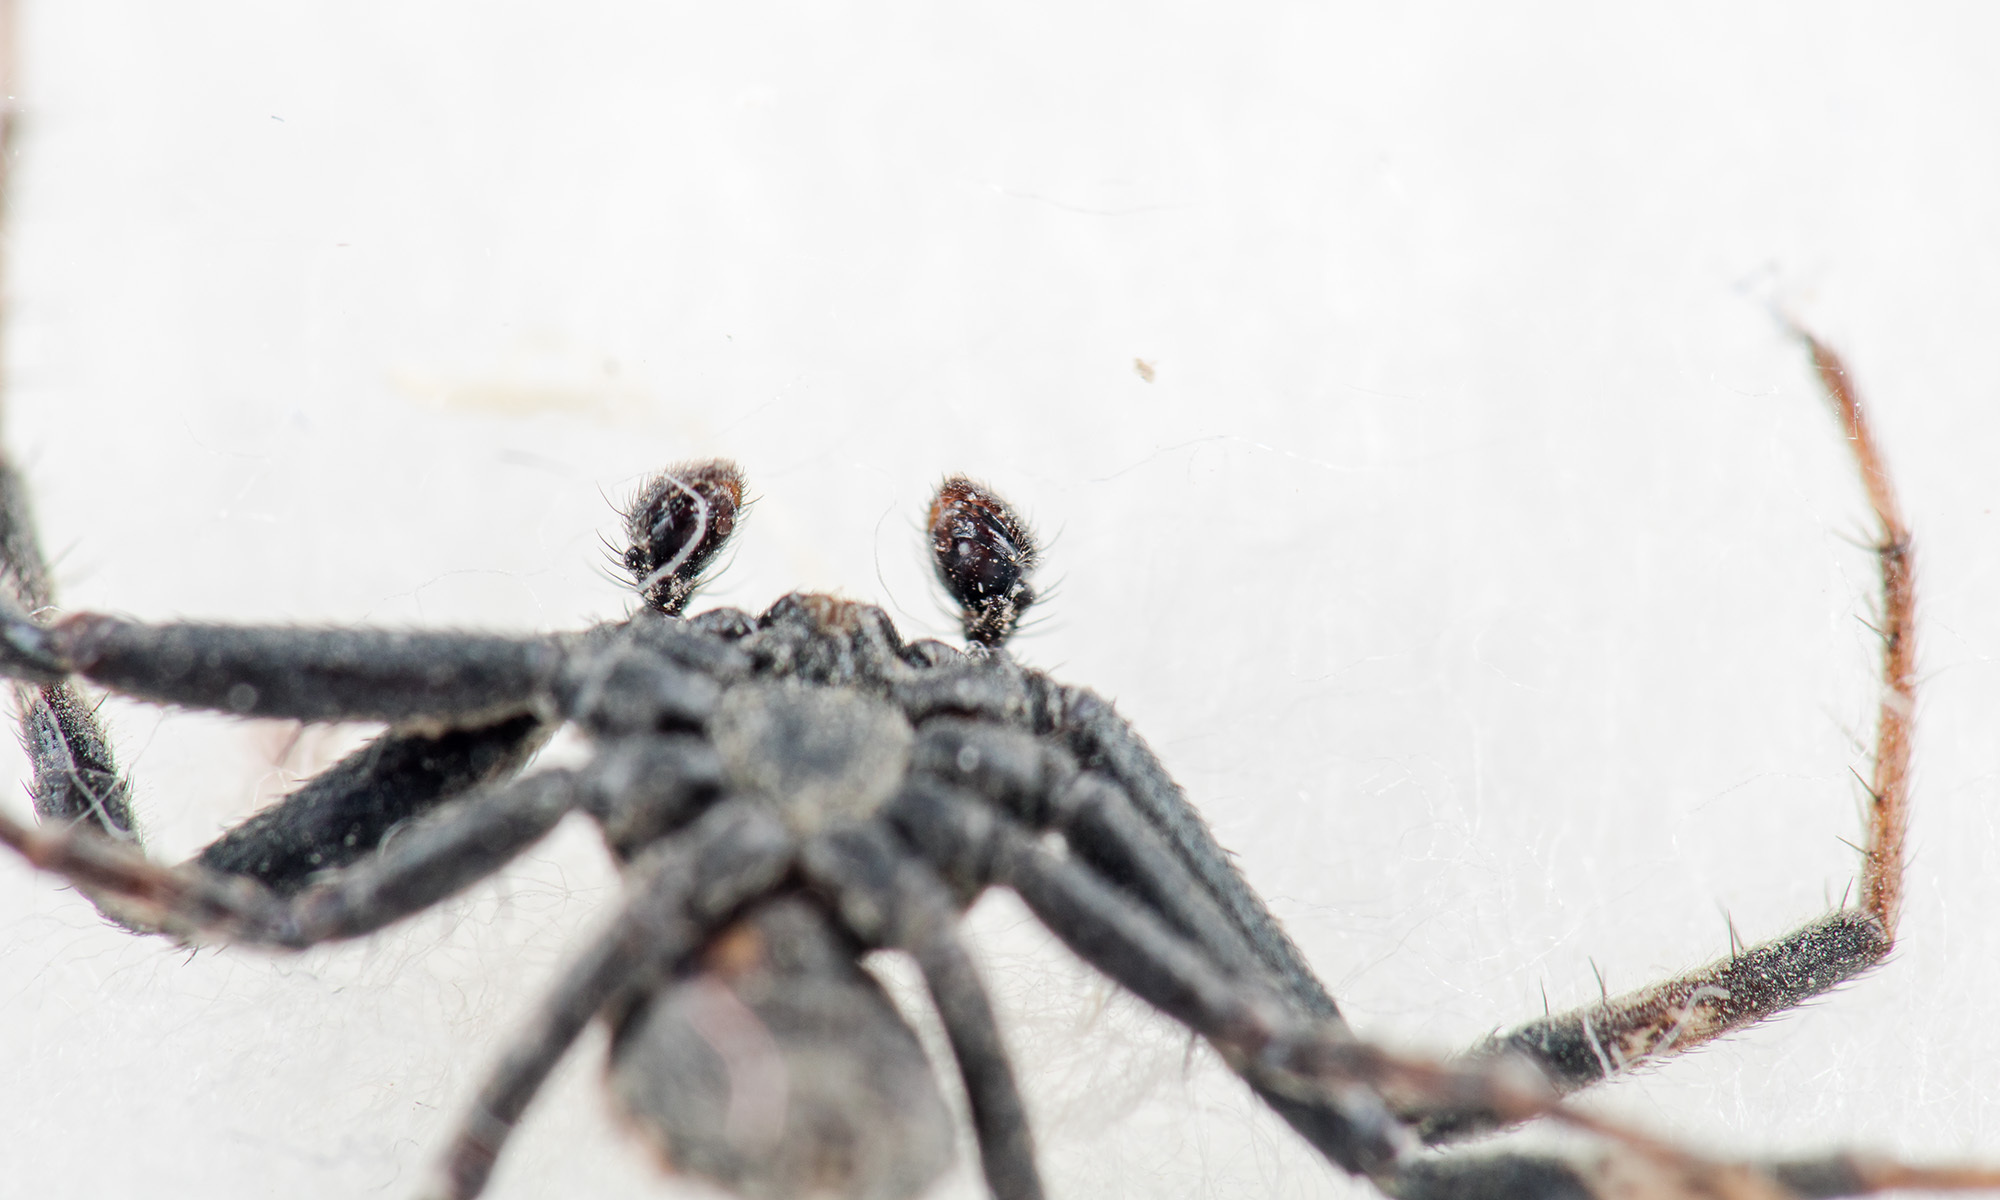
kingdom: Animalia
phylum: Arthropoda
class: Arachnida
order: Araneae
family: Thomisidae
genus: Ozyptila
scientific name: Ozyptila lugubris
